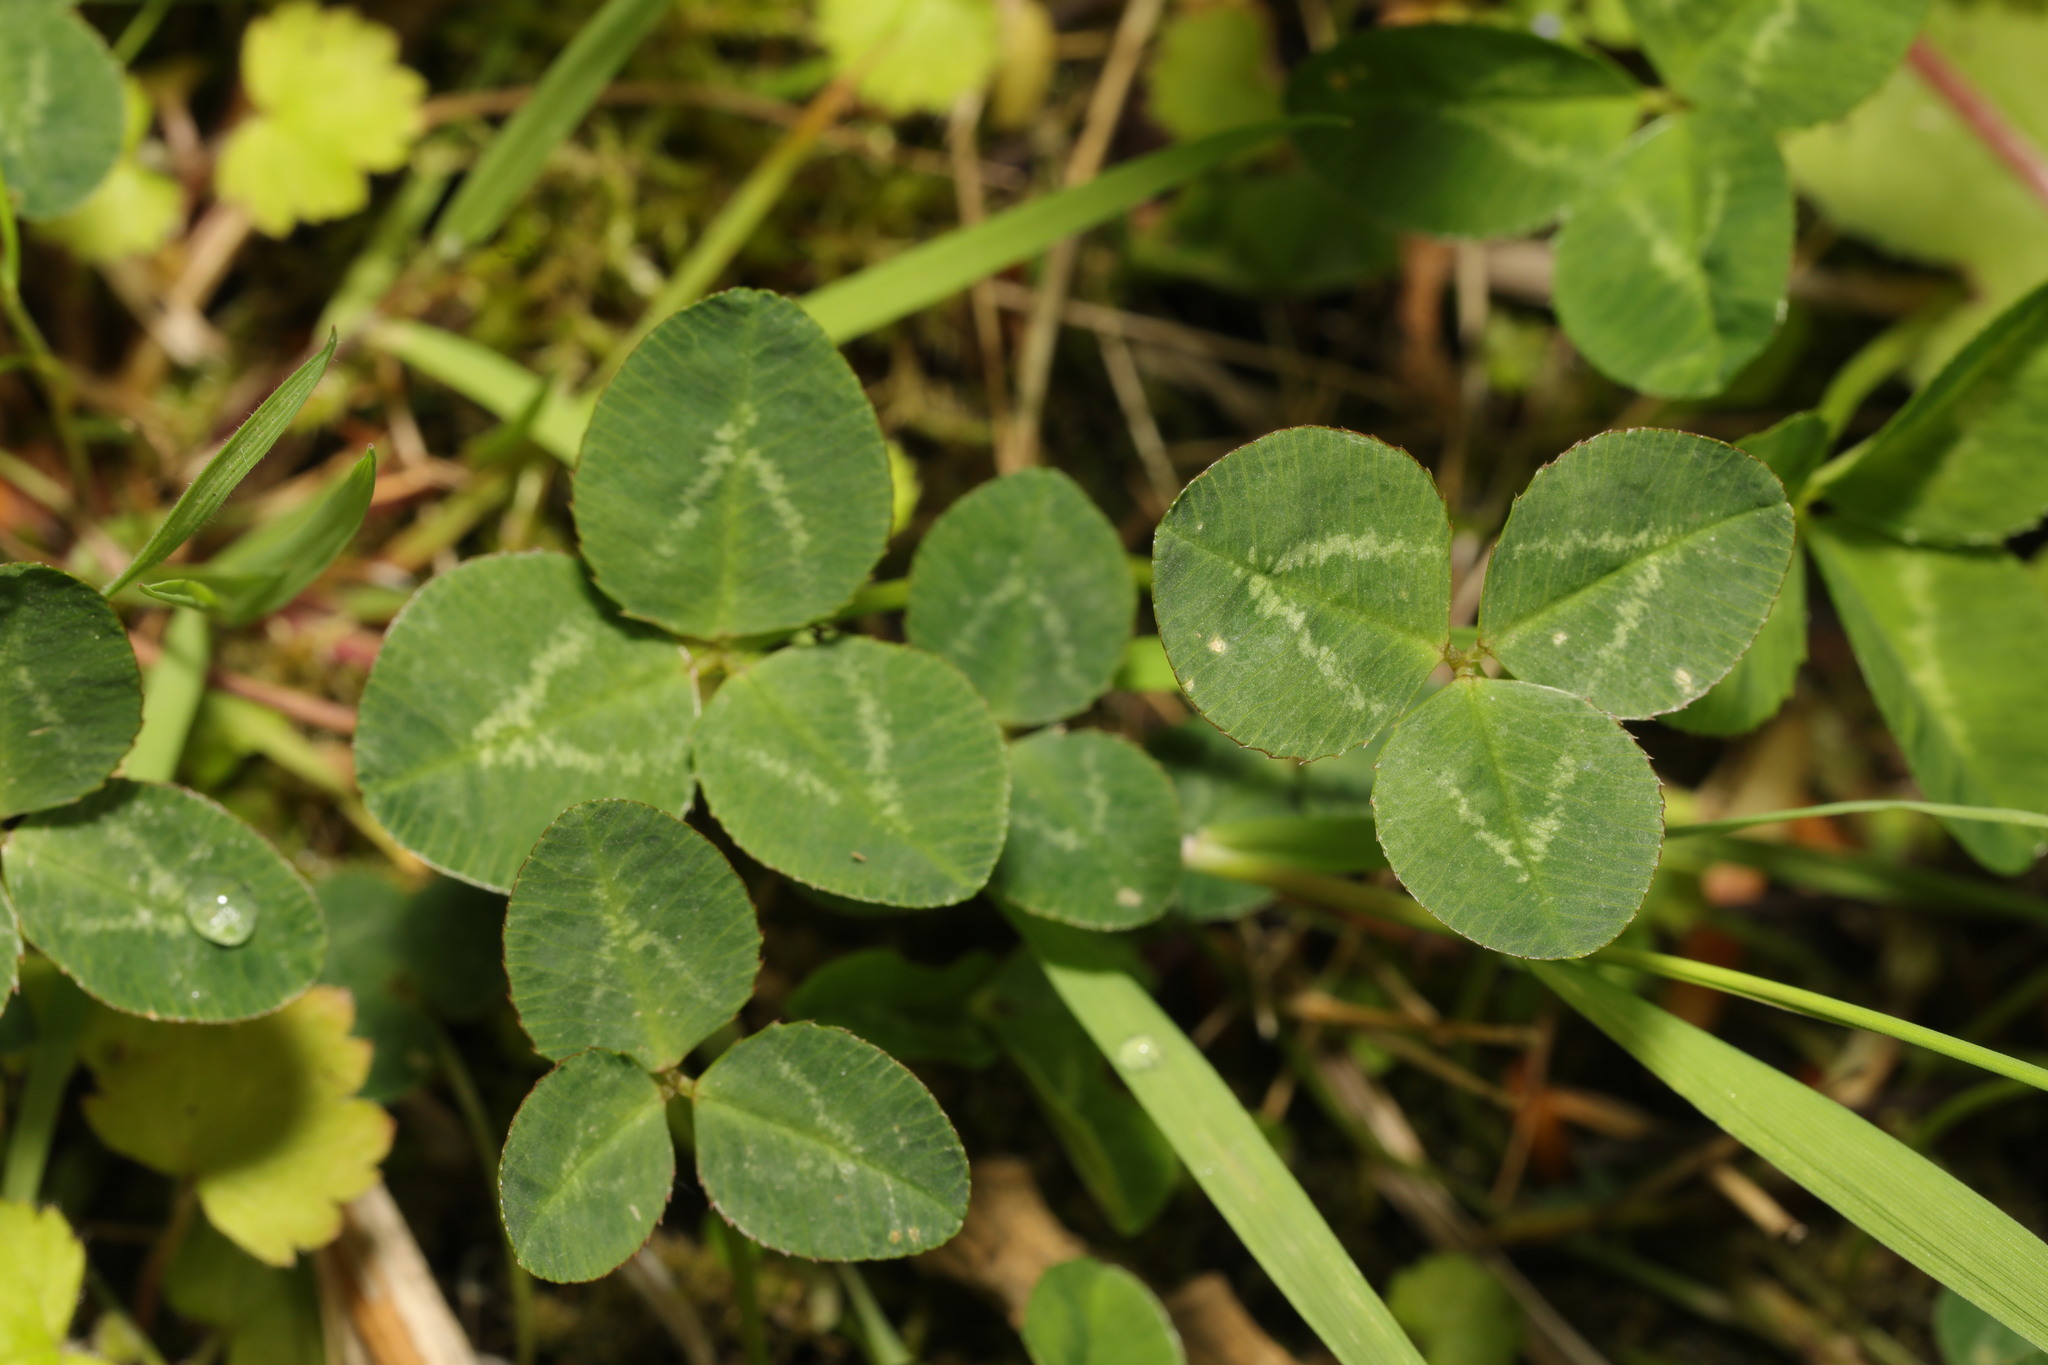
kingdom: Plantae
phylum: Tracheophyta
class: Magnoliopsida
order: Fabales
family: Fabaceae
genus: Trifolium
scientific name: Trifolium repens
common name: White clover
